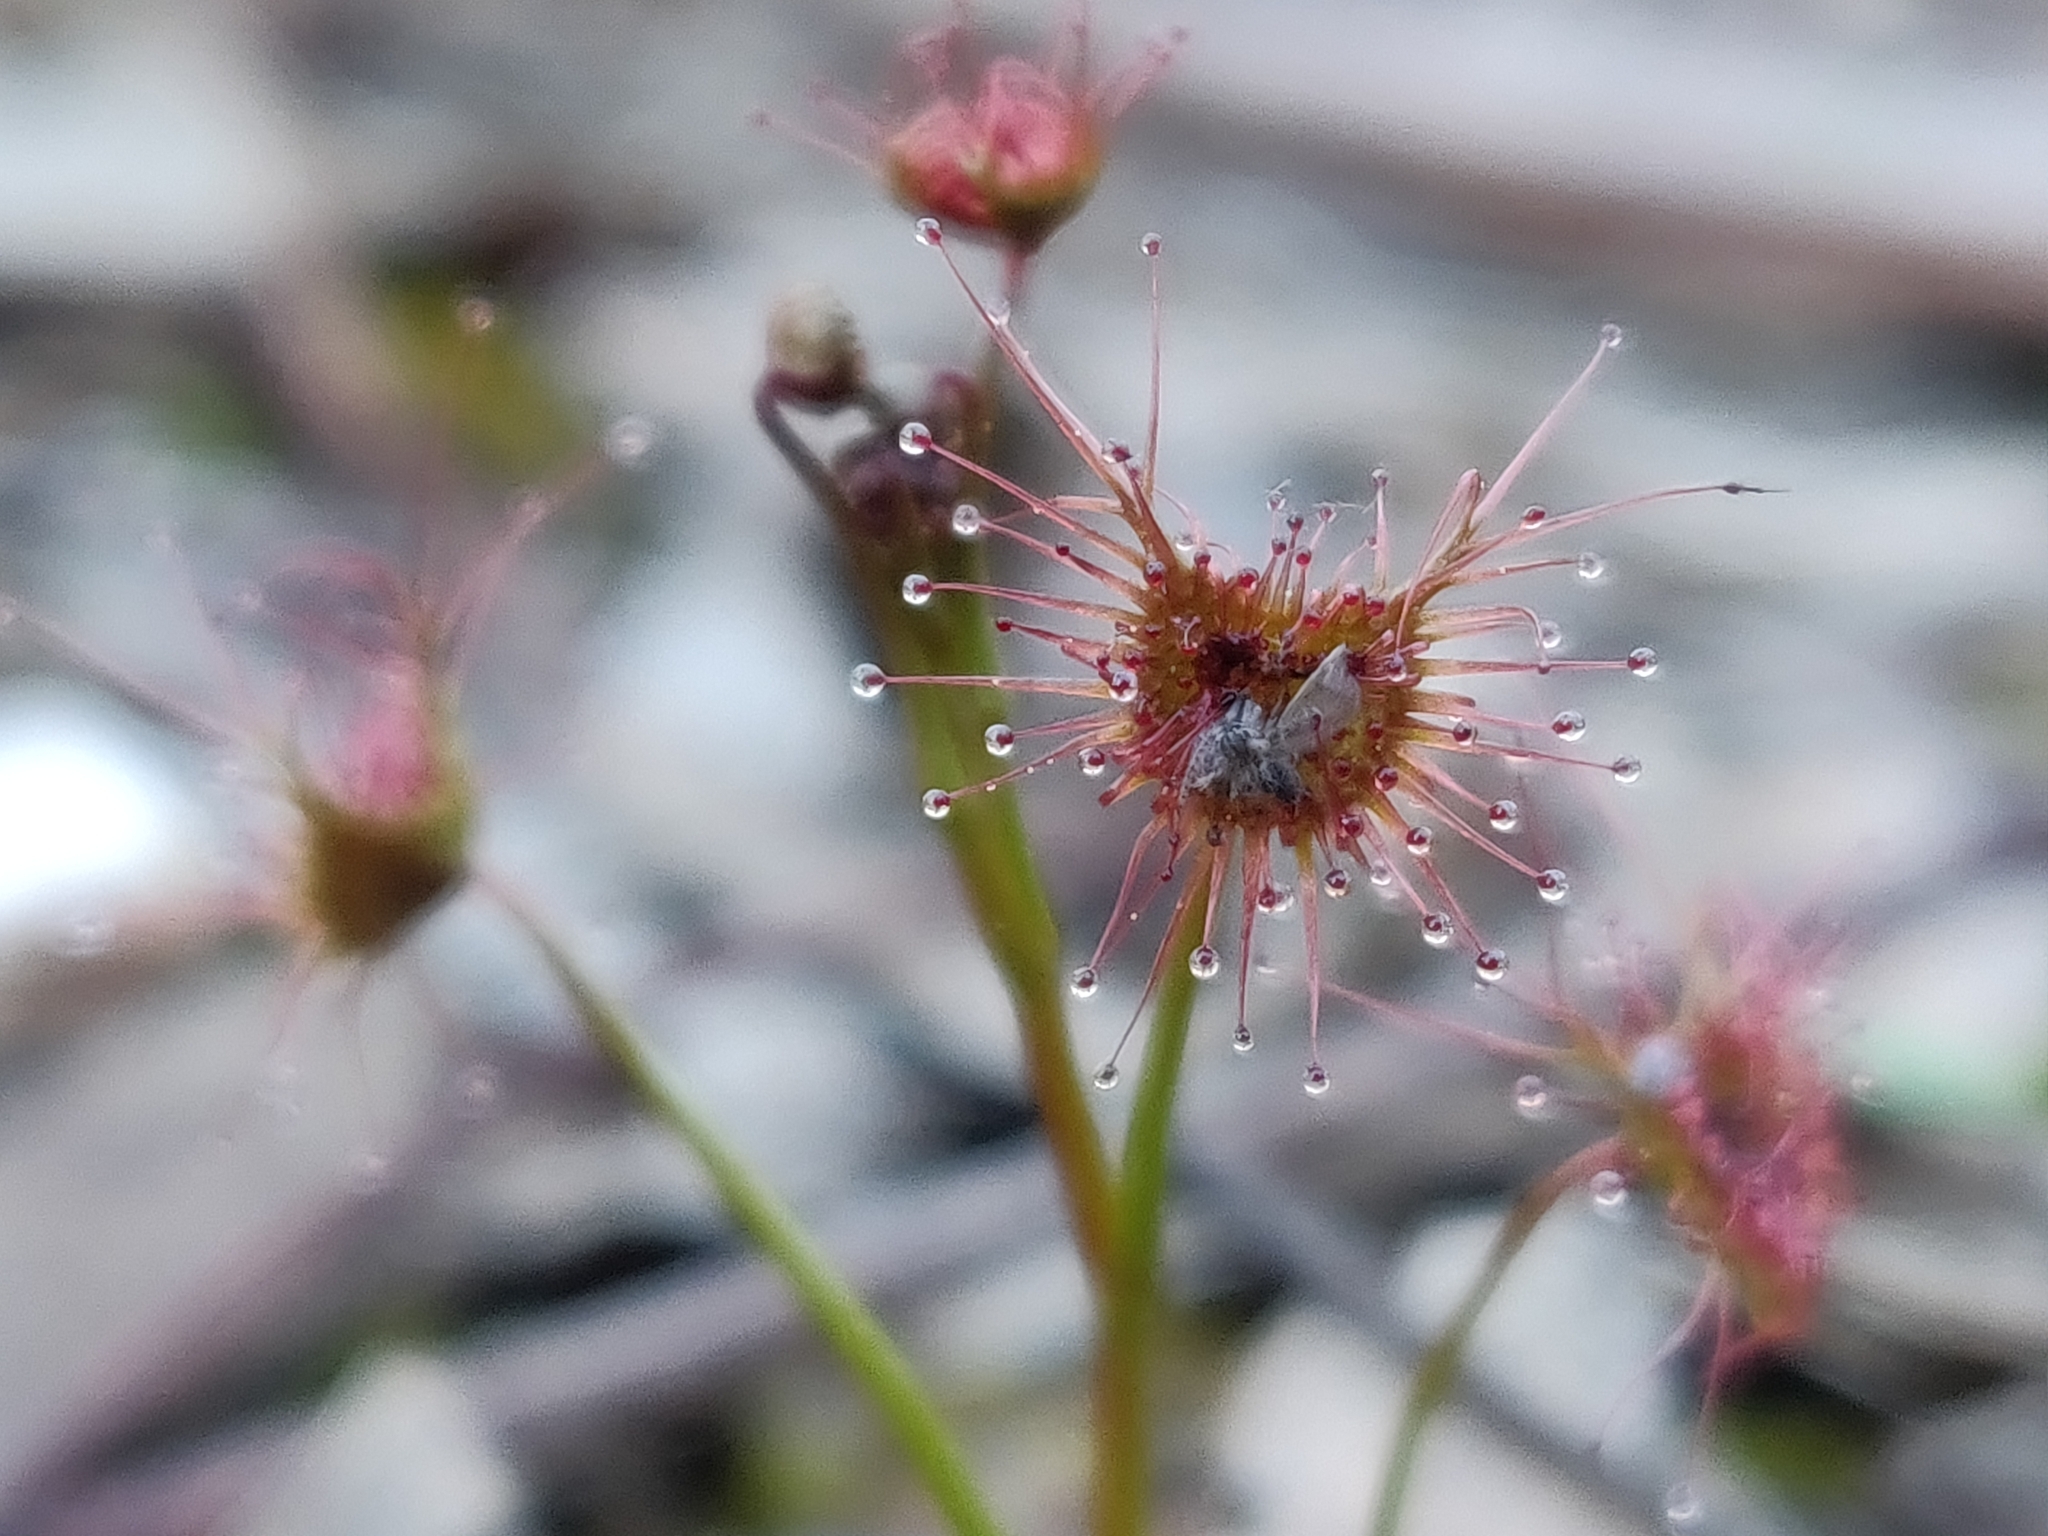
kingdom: Plantae
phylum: Tracheophyta
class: Magnoliopsida
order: Caryophyllales
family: Droseraceae
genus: Drosera
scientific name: Drosera peltata
